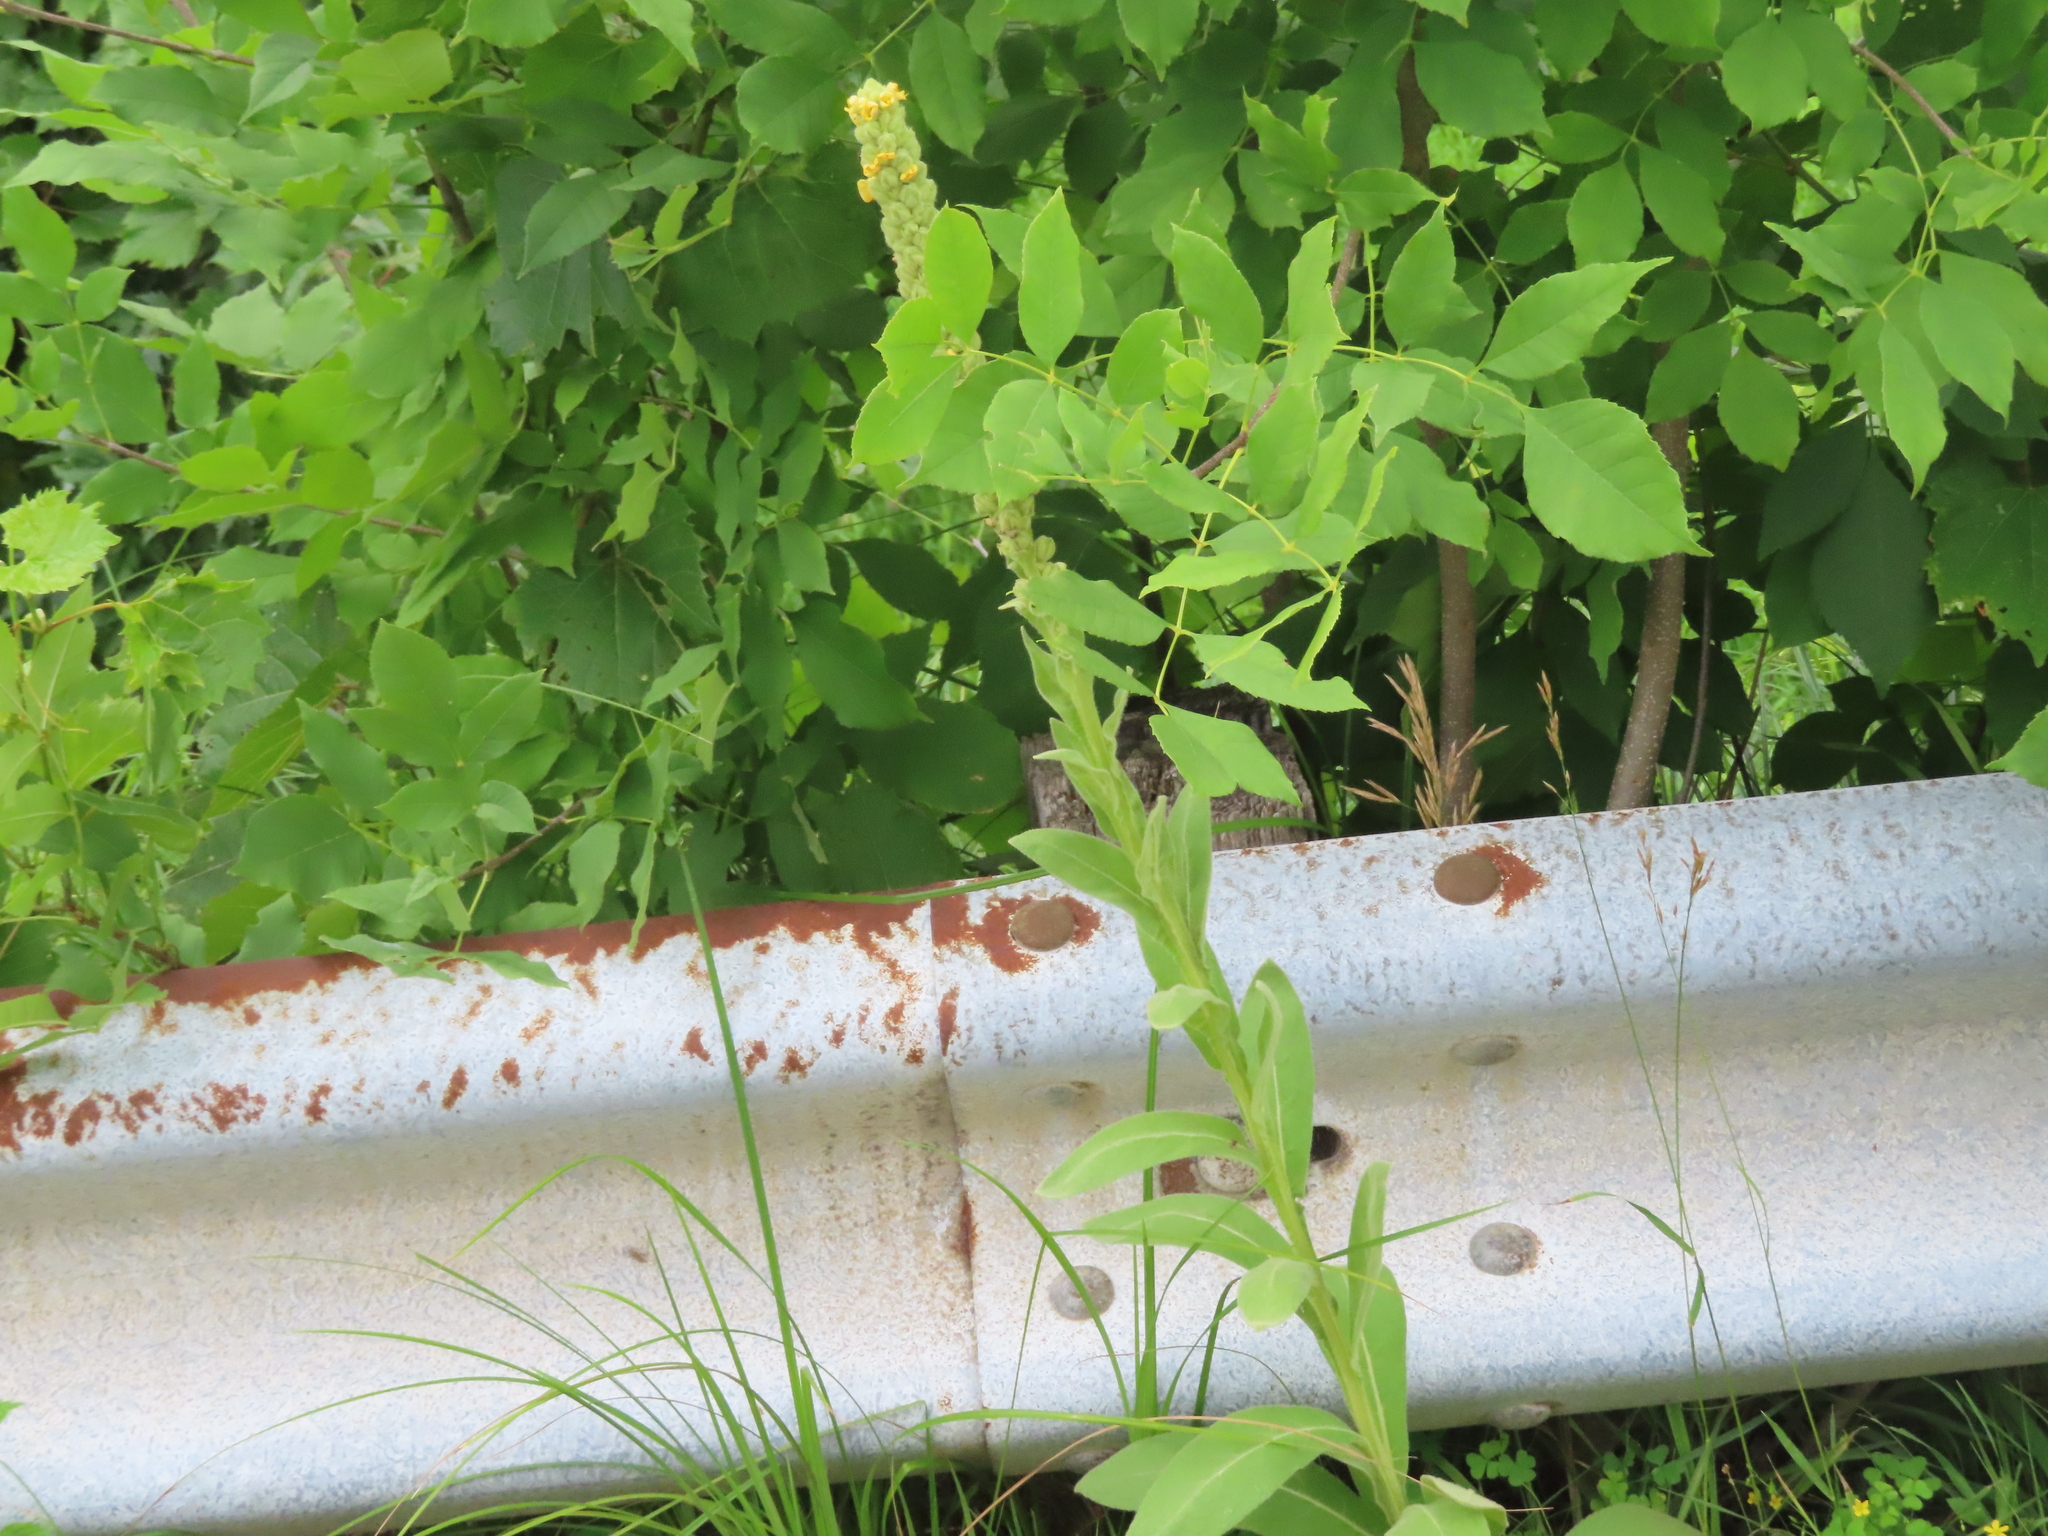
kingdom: Plantae
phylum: Tracheophyta
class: Magnoliopsida
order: Lamiales
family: Scrophulariaceae
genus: Verbascum
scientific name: Verbascum thapsus
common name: Common mullein
